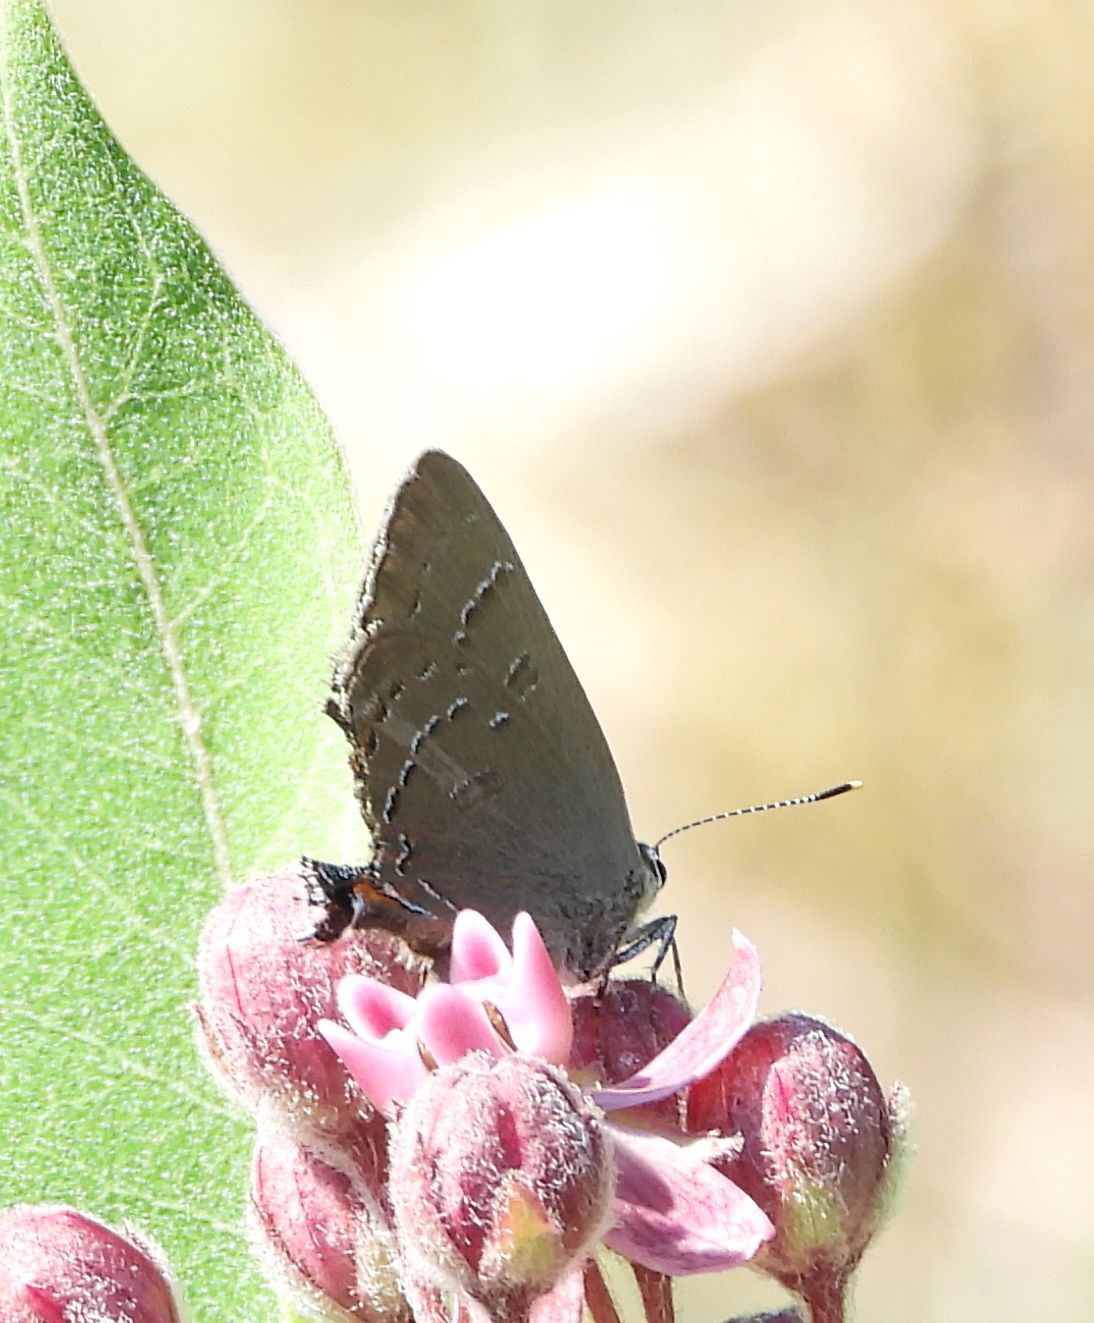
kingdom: Animalia
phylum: Arthropoda
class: Insecta
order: Lepidoptera
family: Lycaenidae
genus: Satyrium
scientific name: Satyrium calanus
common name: Banded hairstreak
